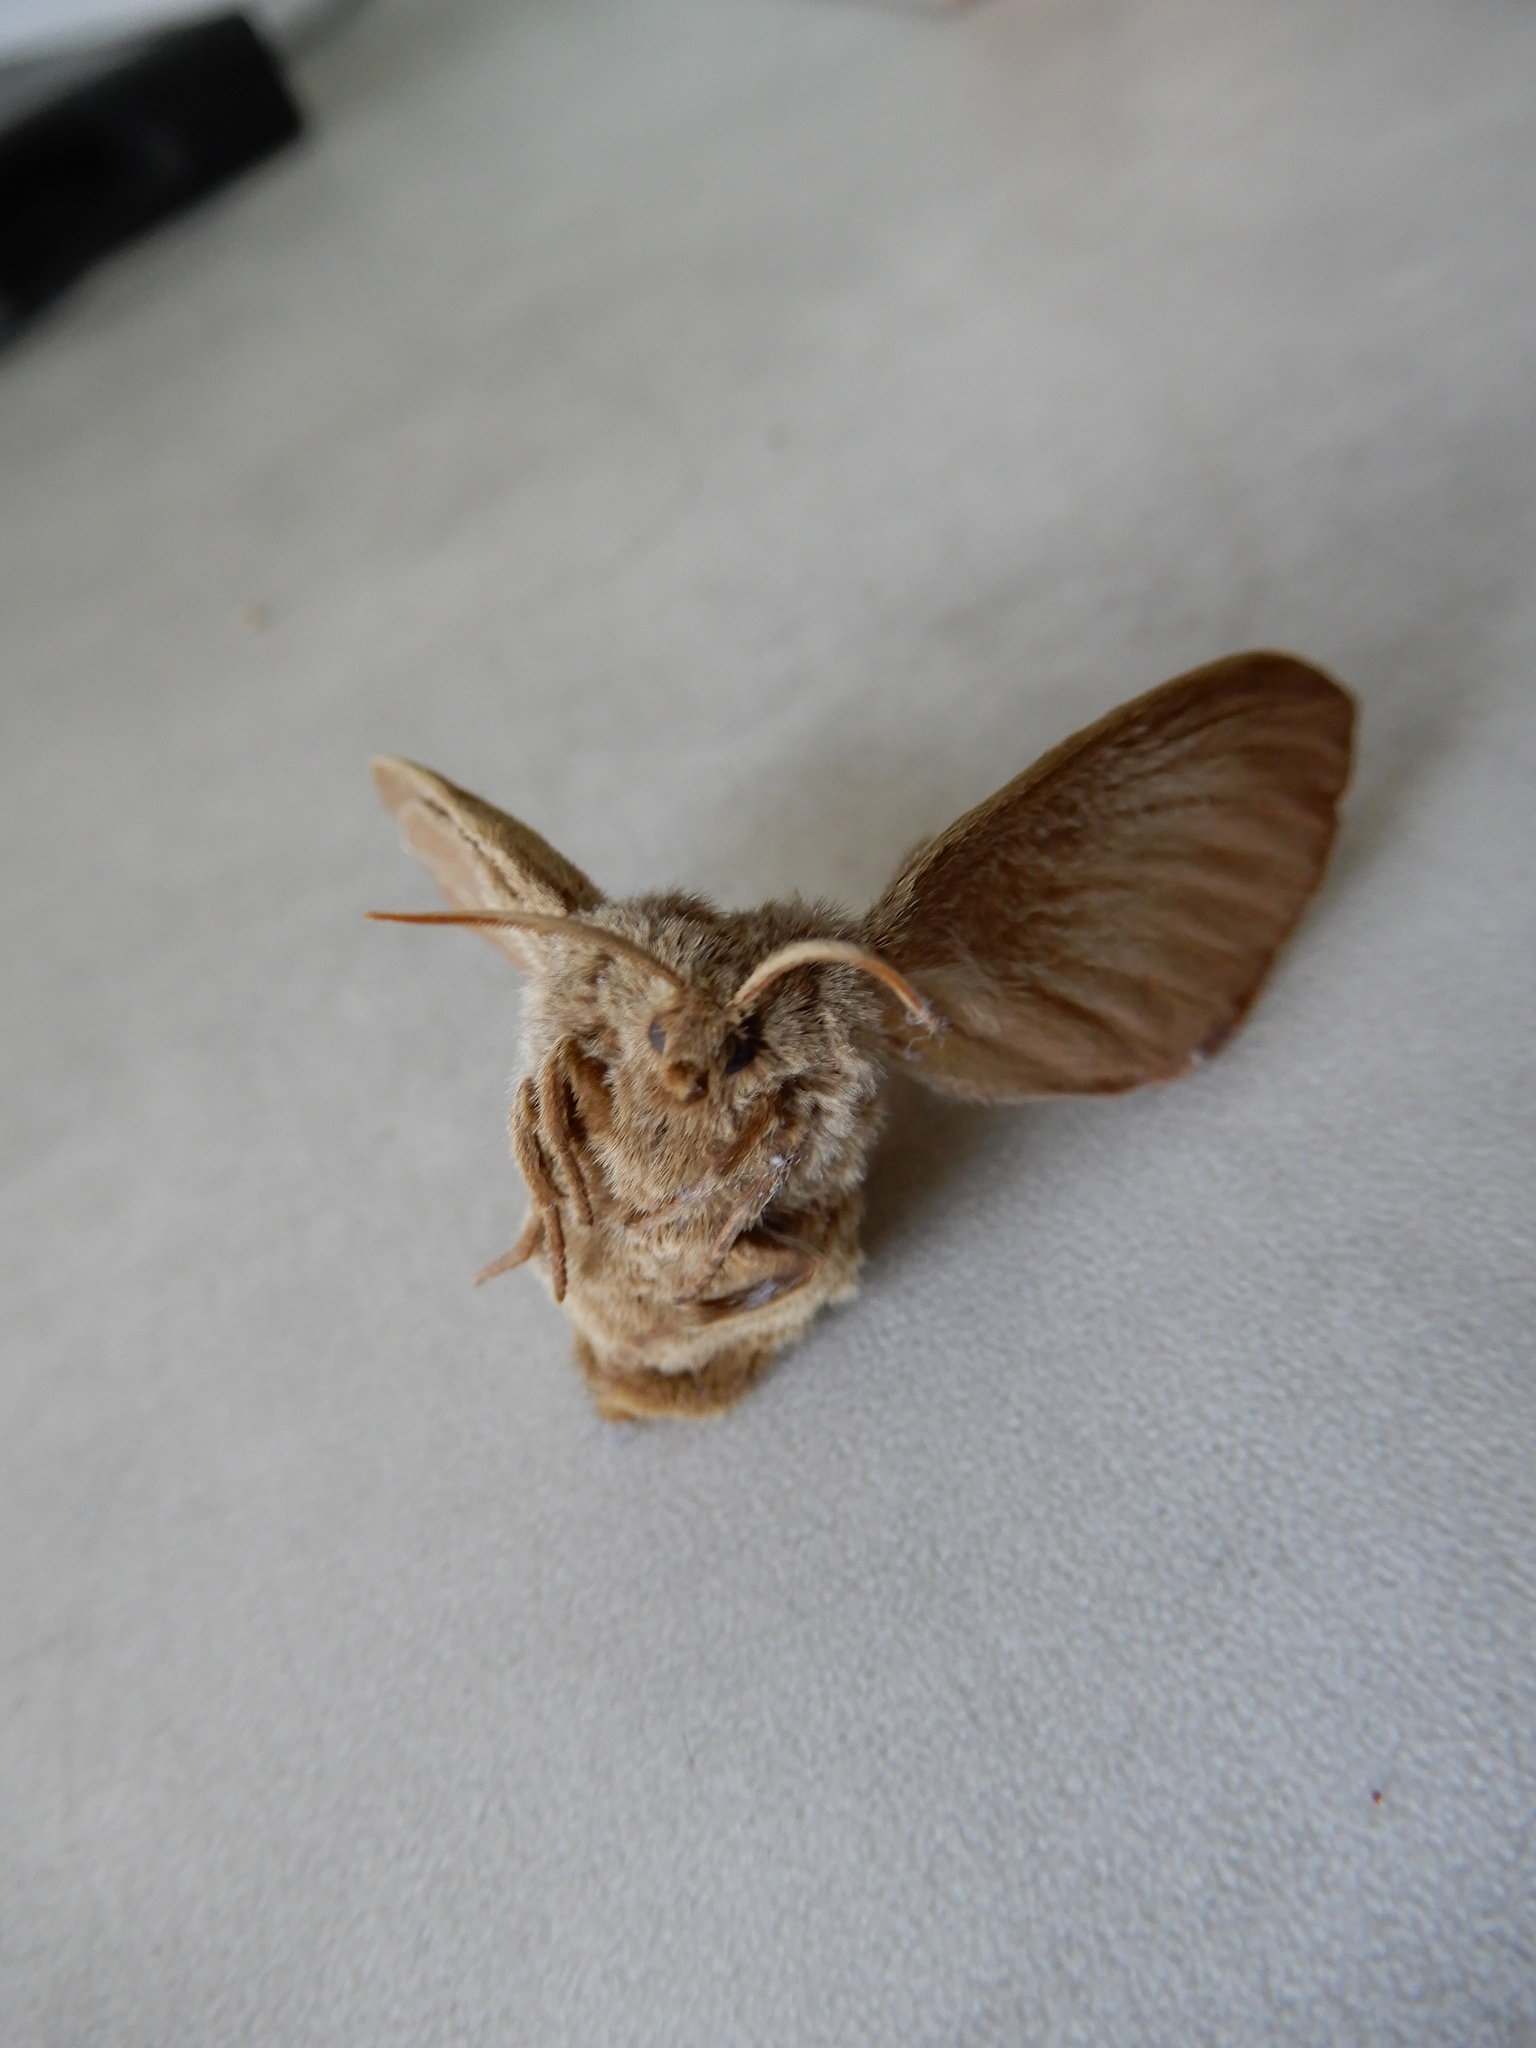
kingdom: Animalia
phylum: Arthropoda
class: Insecta
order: Lepidoptera
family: Lasiocampidae
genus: Macrothylacia
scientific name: Macrothylacia rubi
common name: Fox moth
